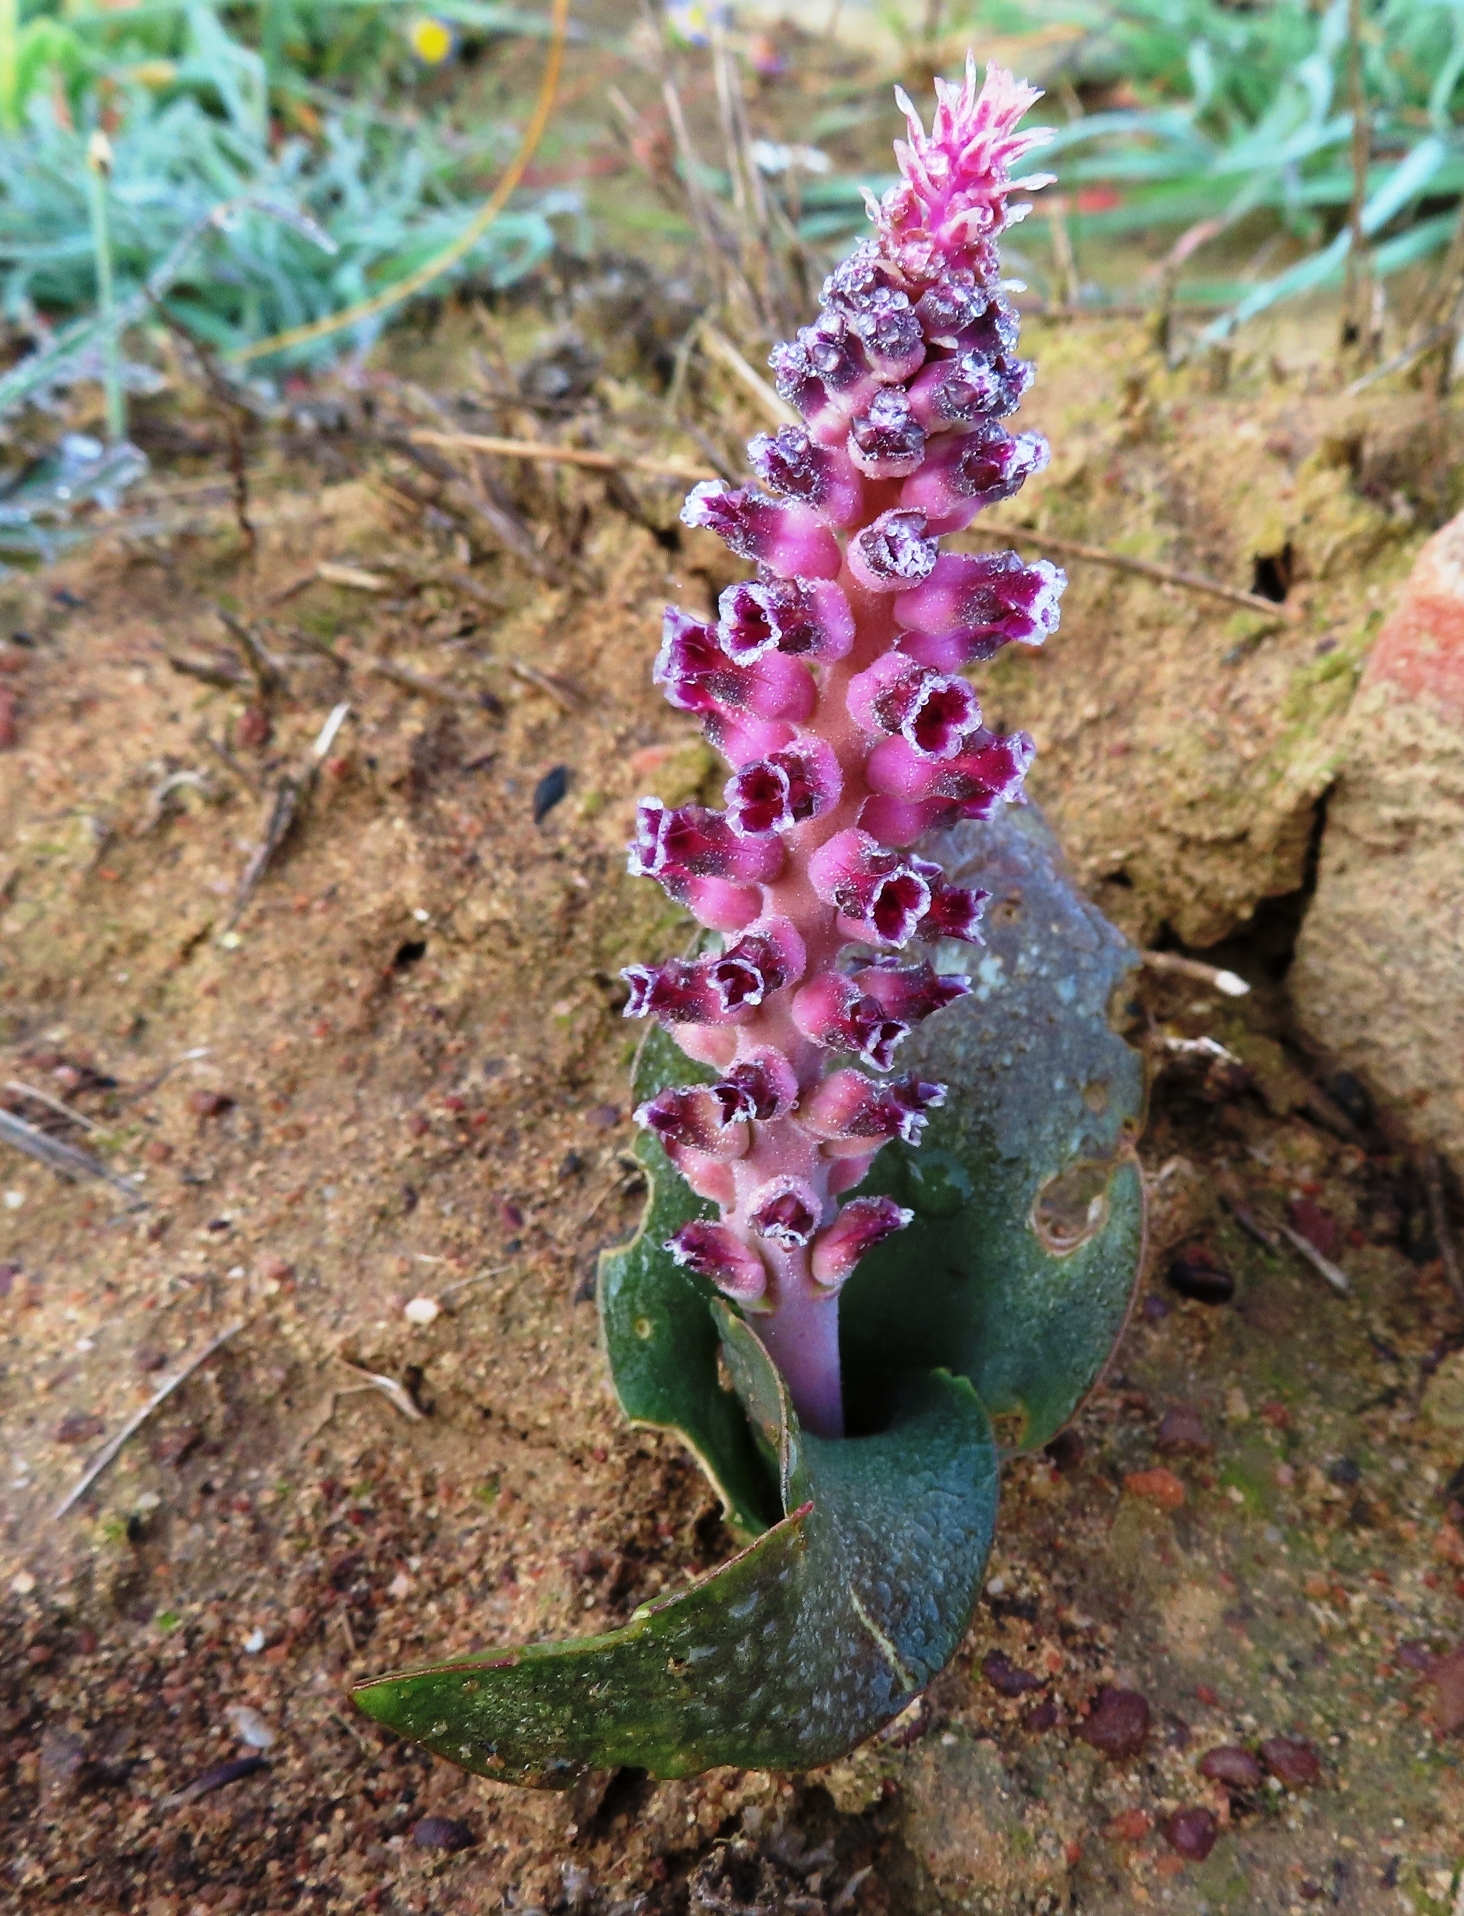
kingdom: Plantae
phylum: Tracheophyta
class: Liliopsida
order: Asparagales
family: Asparagaceae
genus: Lachenalia
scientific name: Lachenalia suaveolens
